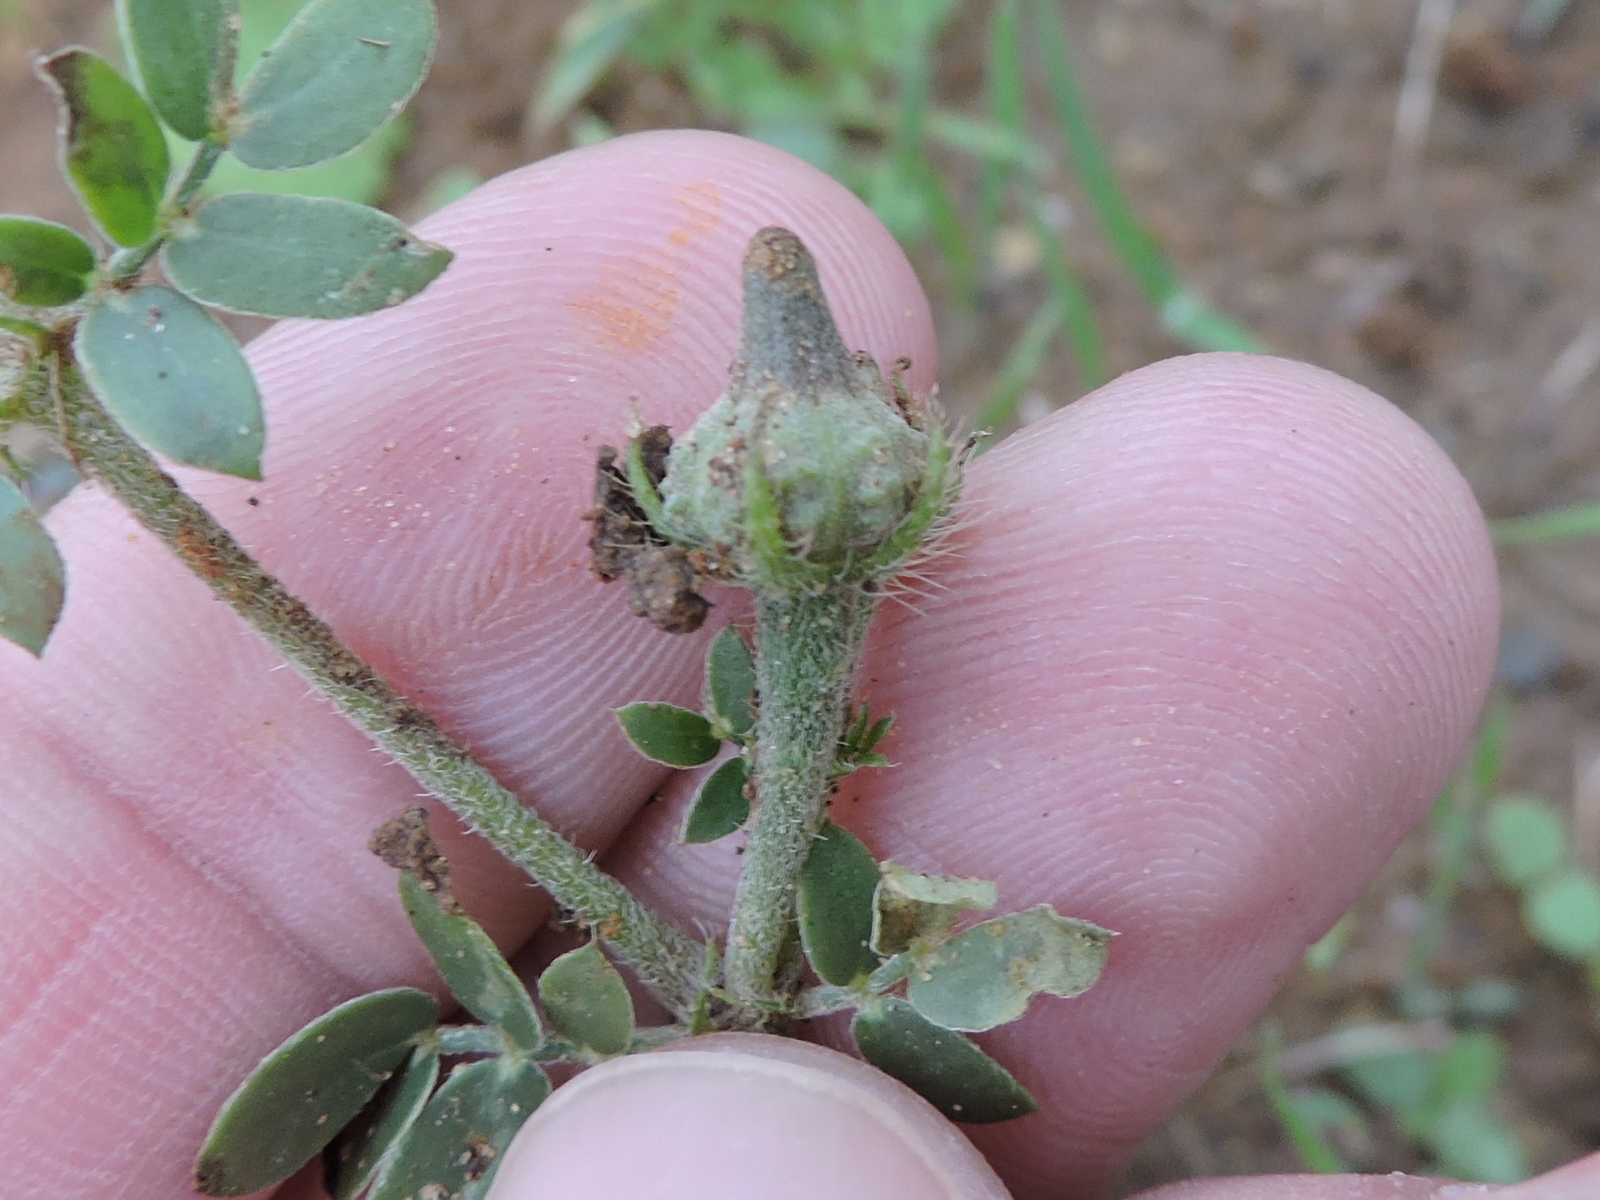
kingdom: Plantae
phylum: Tracheophyta
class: Magnoliopsida
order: Zygophyllales
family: Zygophyllaceae
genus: Kallstroemia
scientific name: Kallstroemia parviflora
